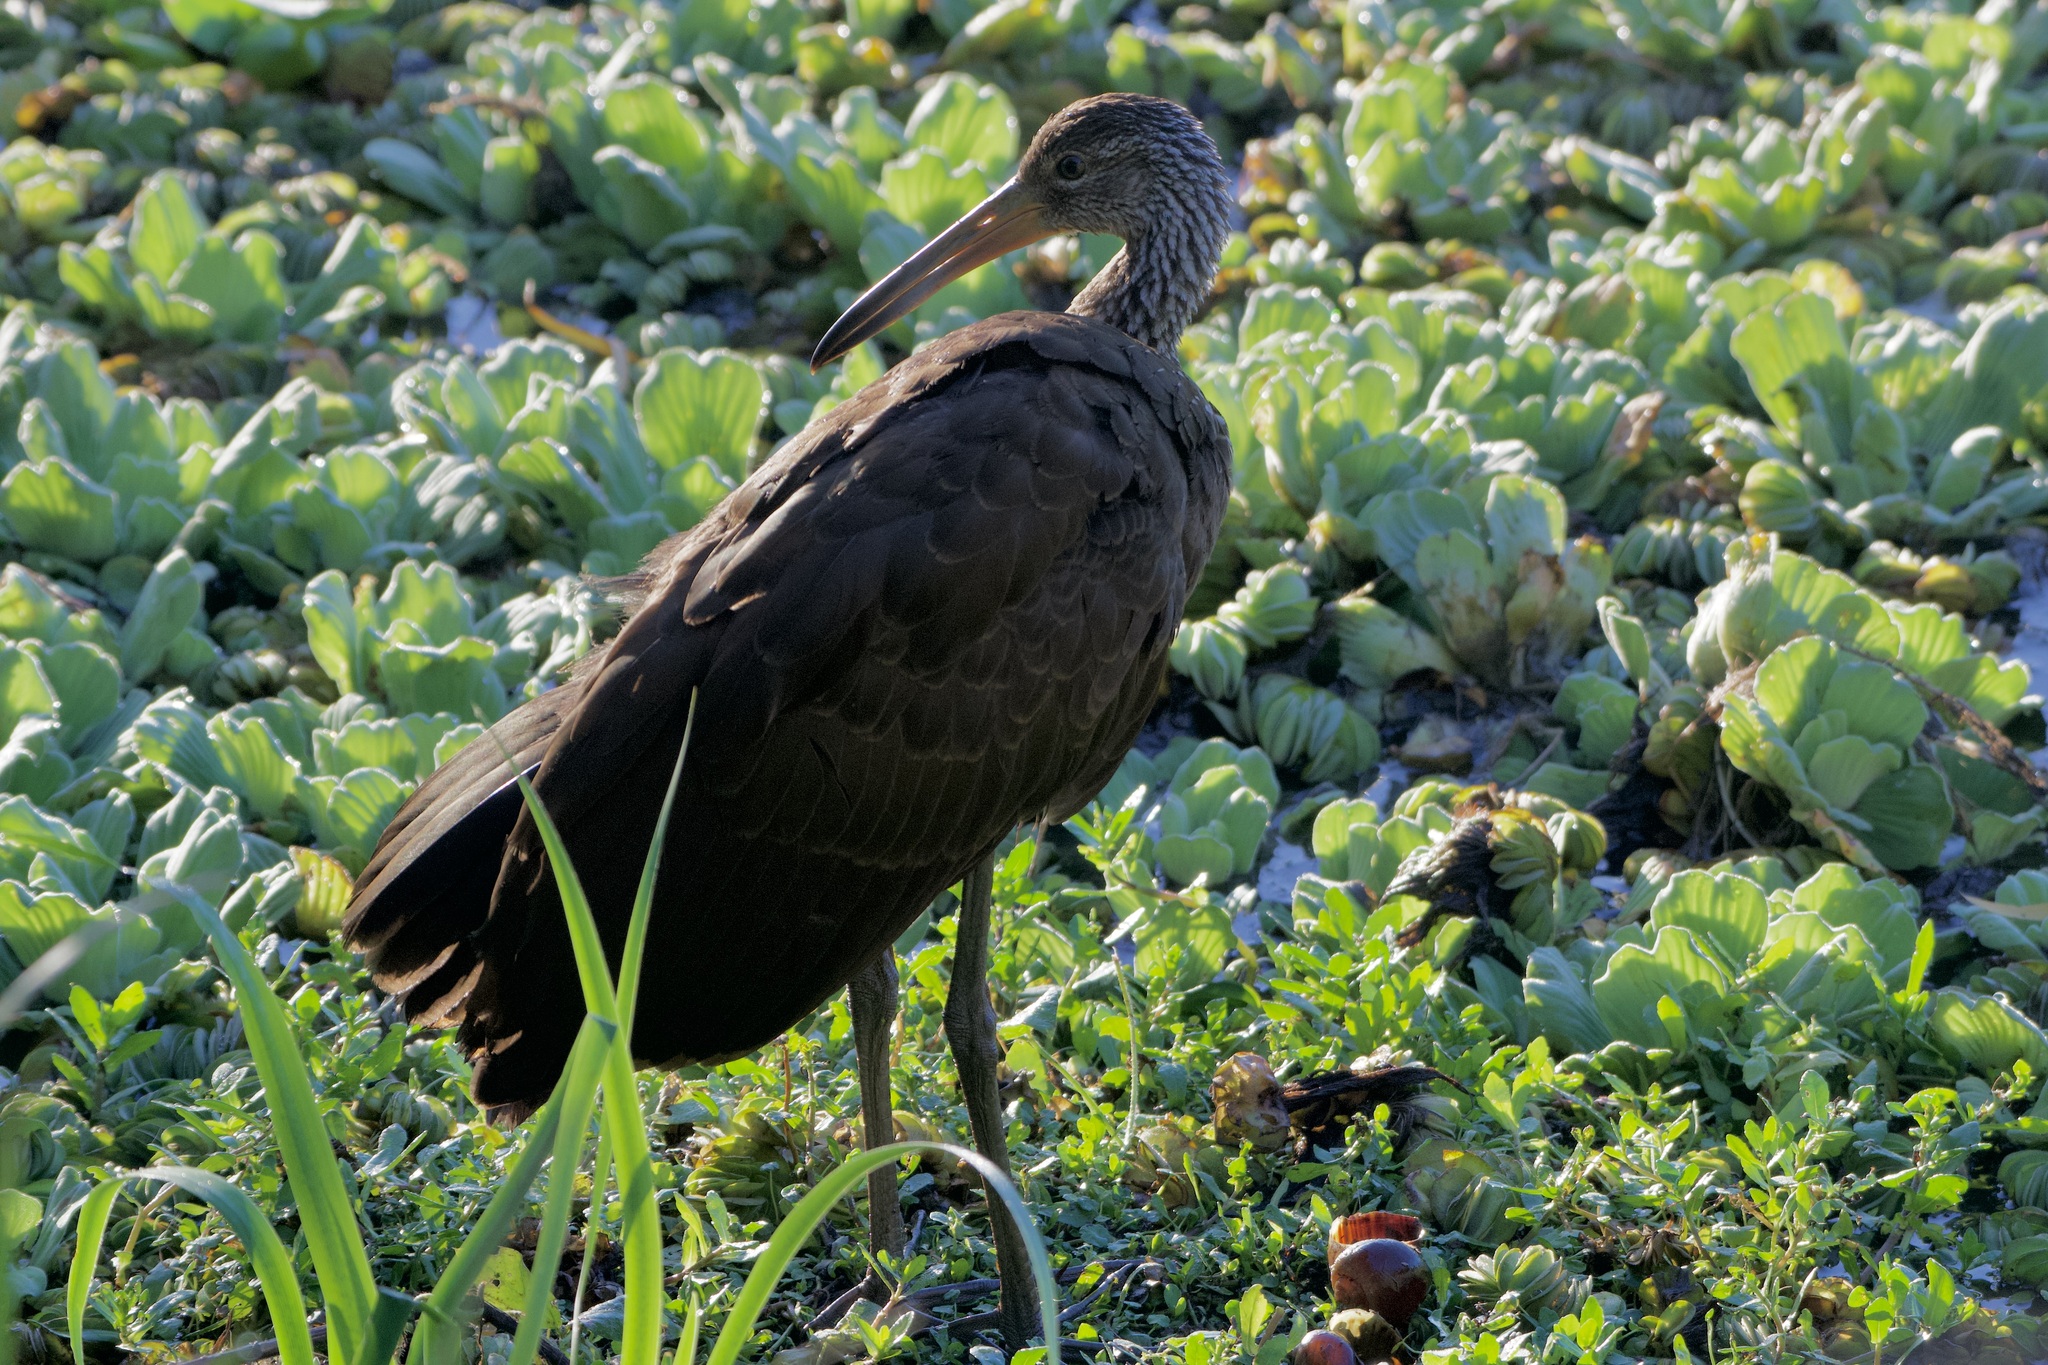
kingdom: Animalia
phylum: Chordata
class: Aves
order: Gruiformes
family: Aramidae
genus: Aramus
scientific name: Aramus guarauna
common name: Limpkin
